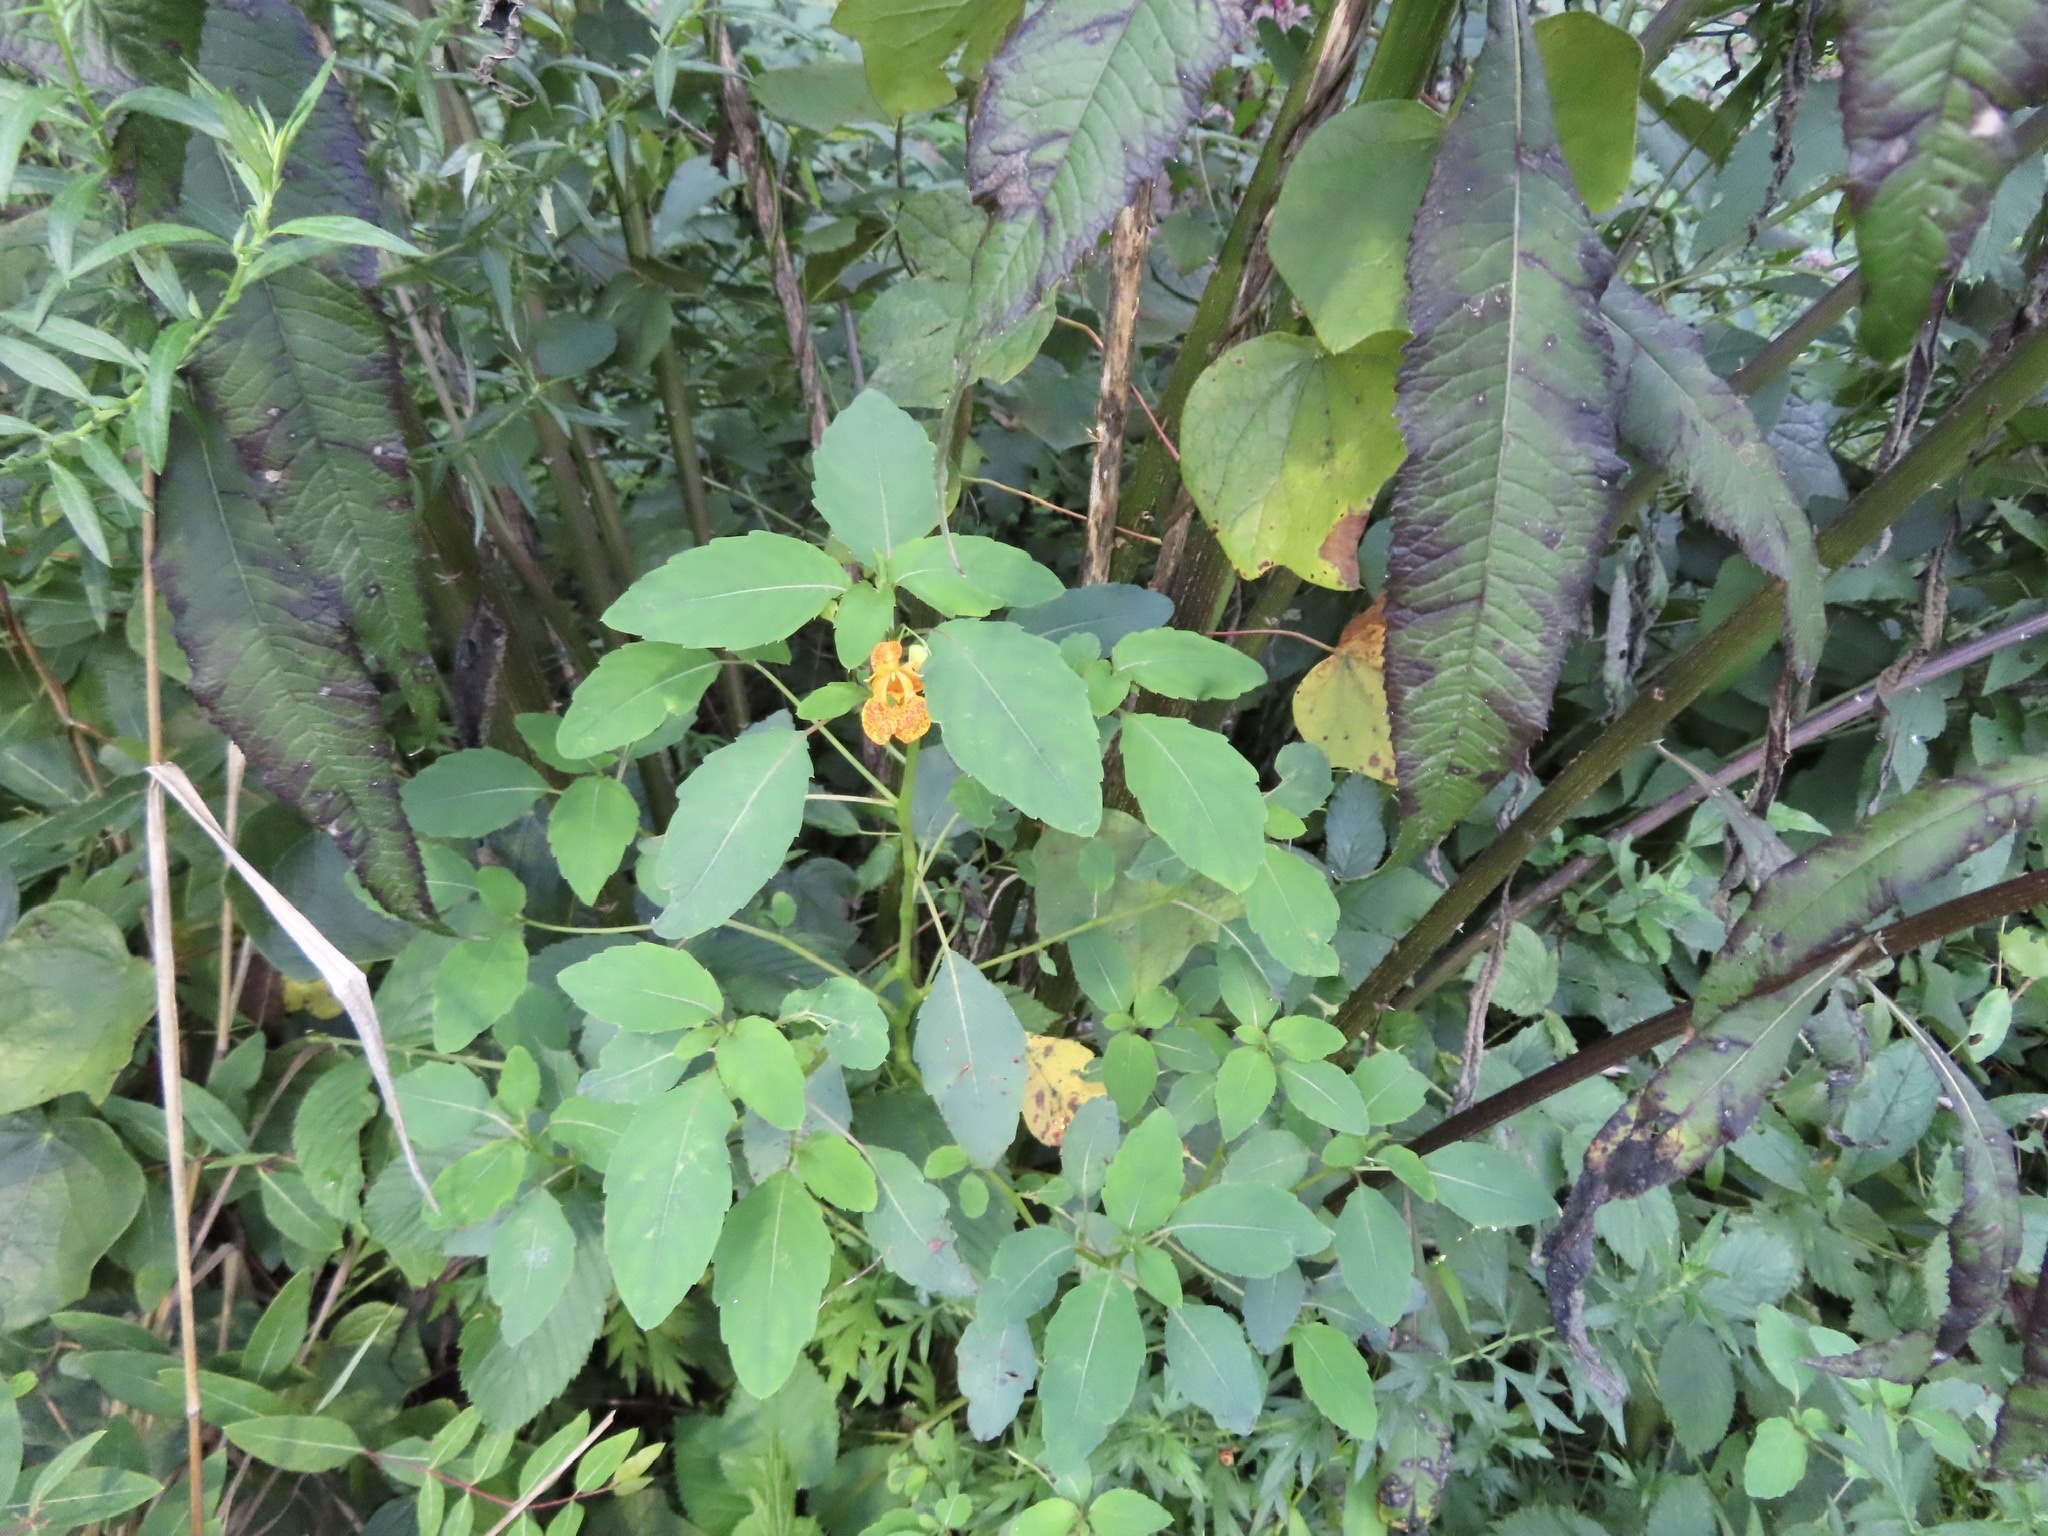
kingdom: Plantae
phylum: Tracheophyta
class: Magnoliopsida
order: Ericales
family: Balsaminaceae
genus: Impatiens
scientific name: Impatiens capensis
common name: Orange balsam
